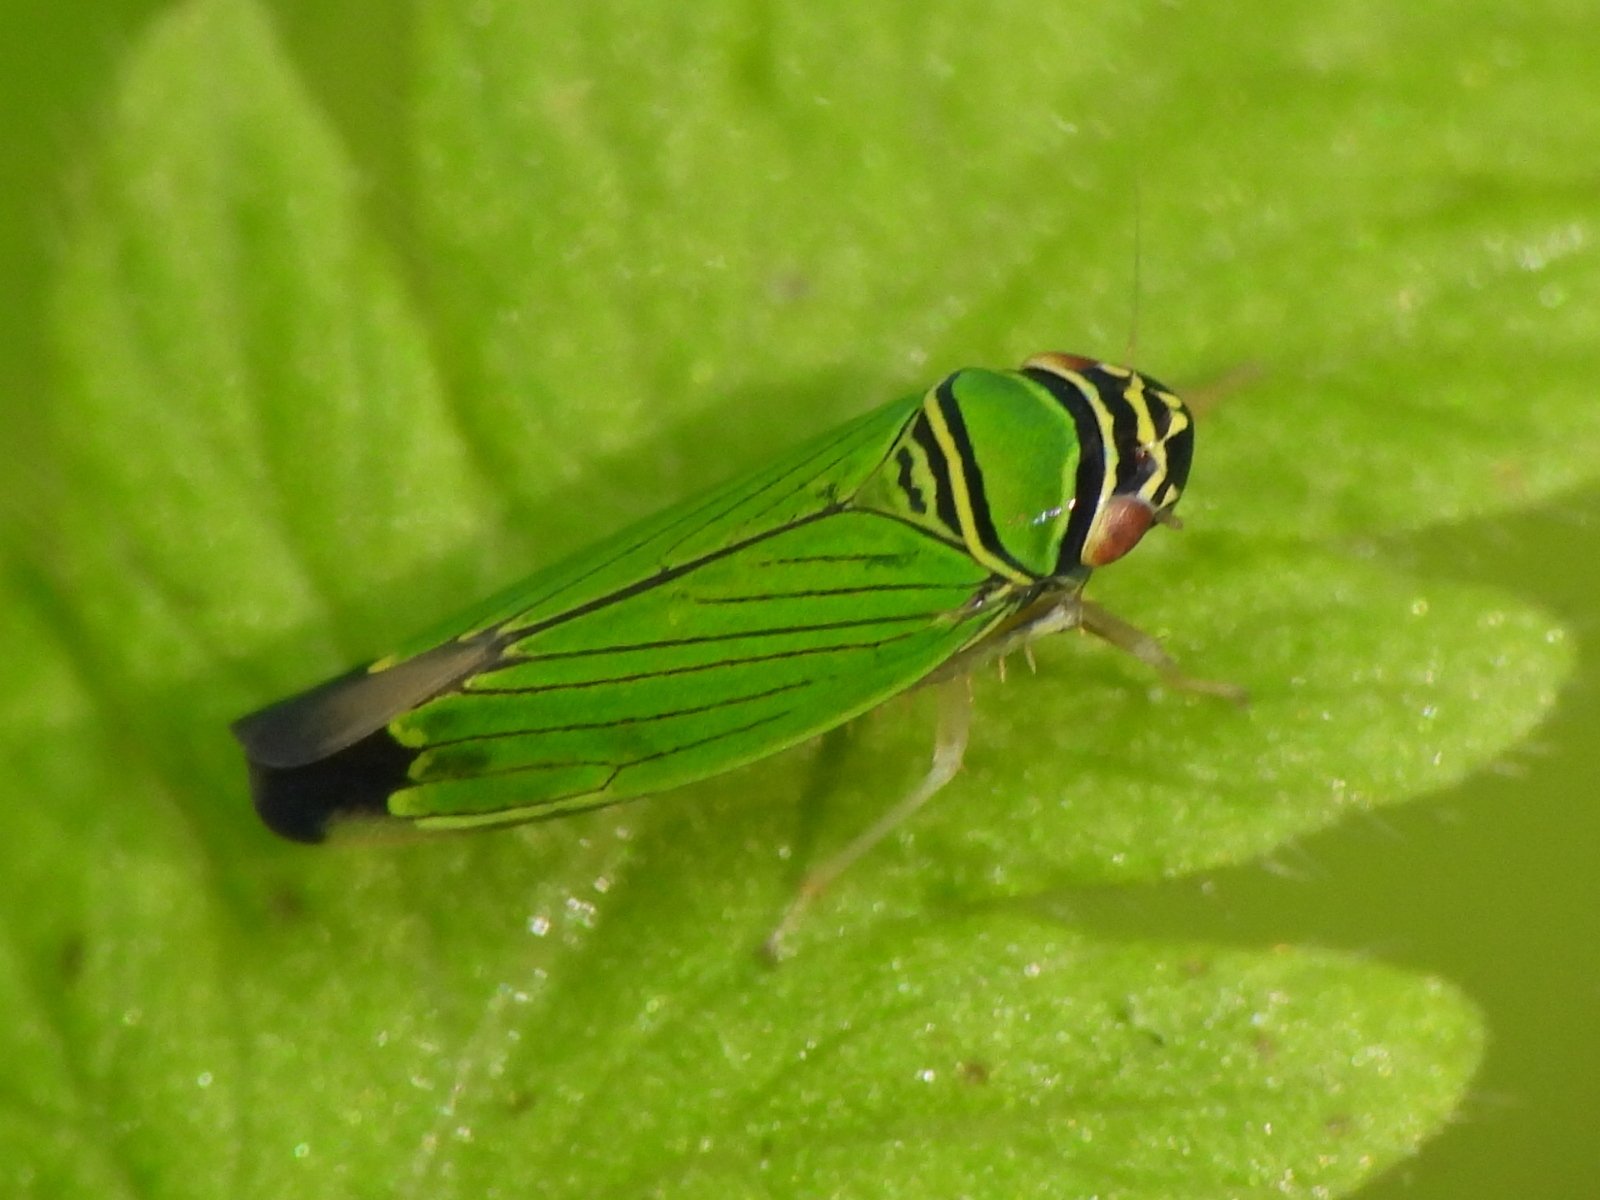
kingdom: Animalia
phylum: Arthropoda
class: Insecta
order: Hemiptera
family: Cicadellidae
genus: Tylozygus
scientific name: Tylozygus geometricus
